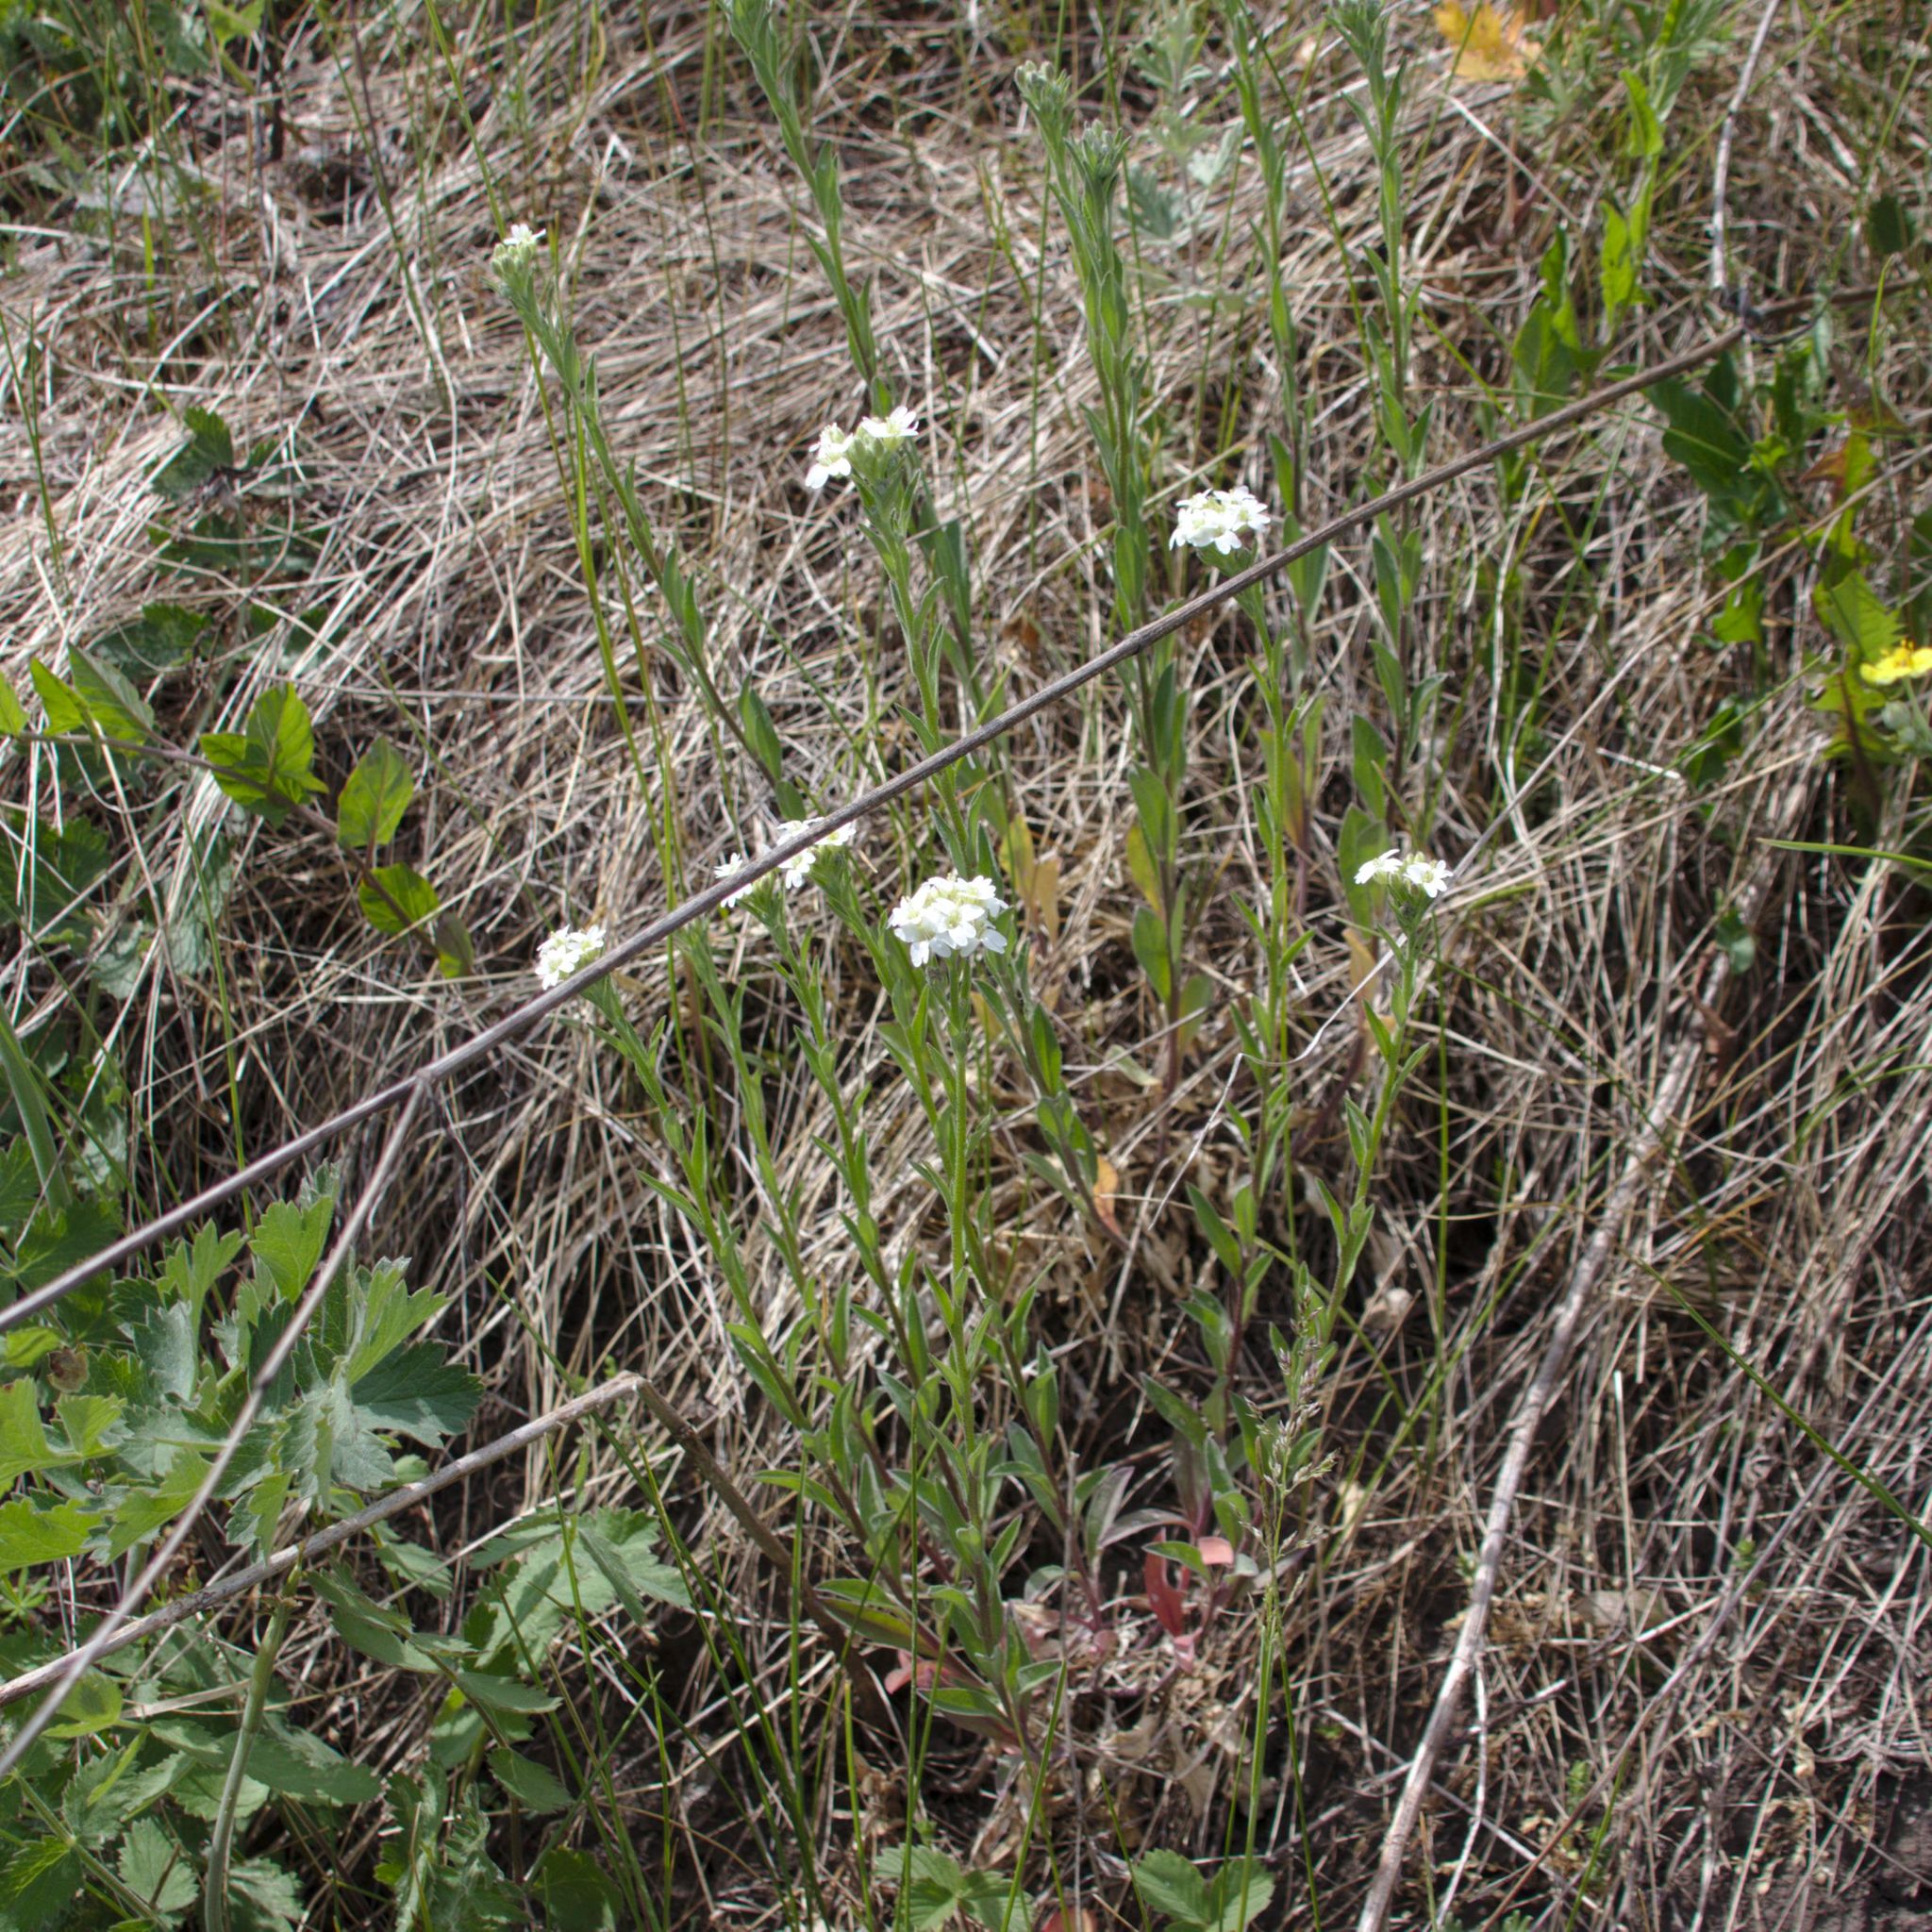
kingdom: Plantae
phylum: Tracheophyta
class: Magnoliopsida
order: Brassicales
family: Brassicaceae
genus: Berteroa
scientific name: Berteroa incana
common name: Hoary alison
